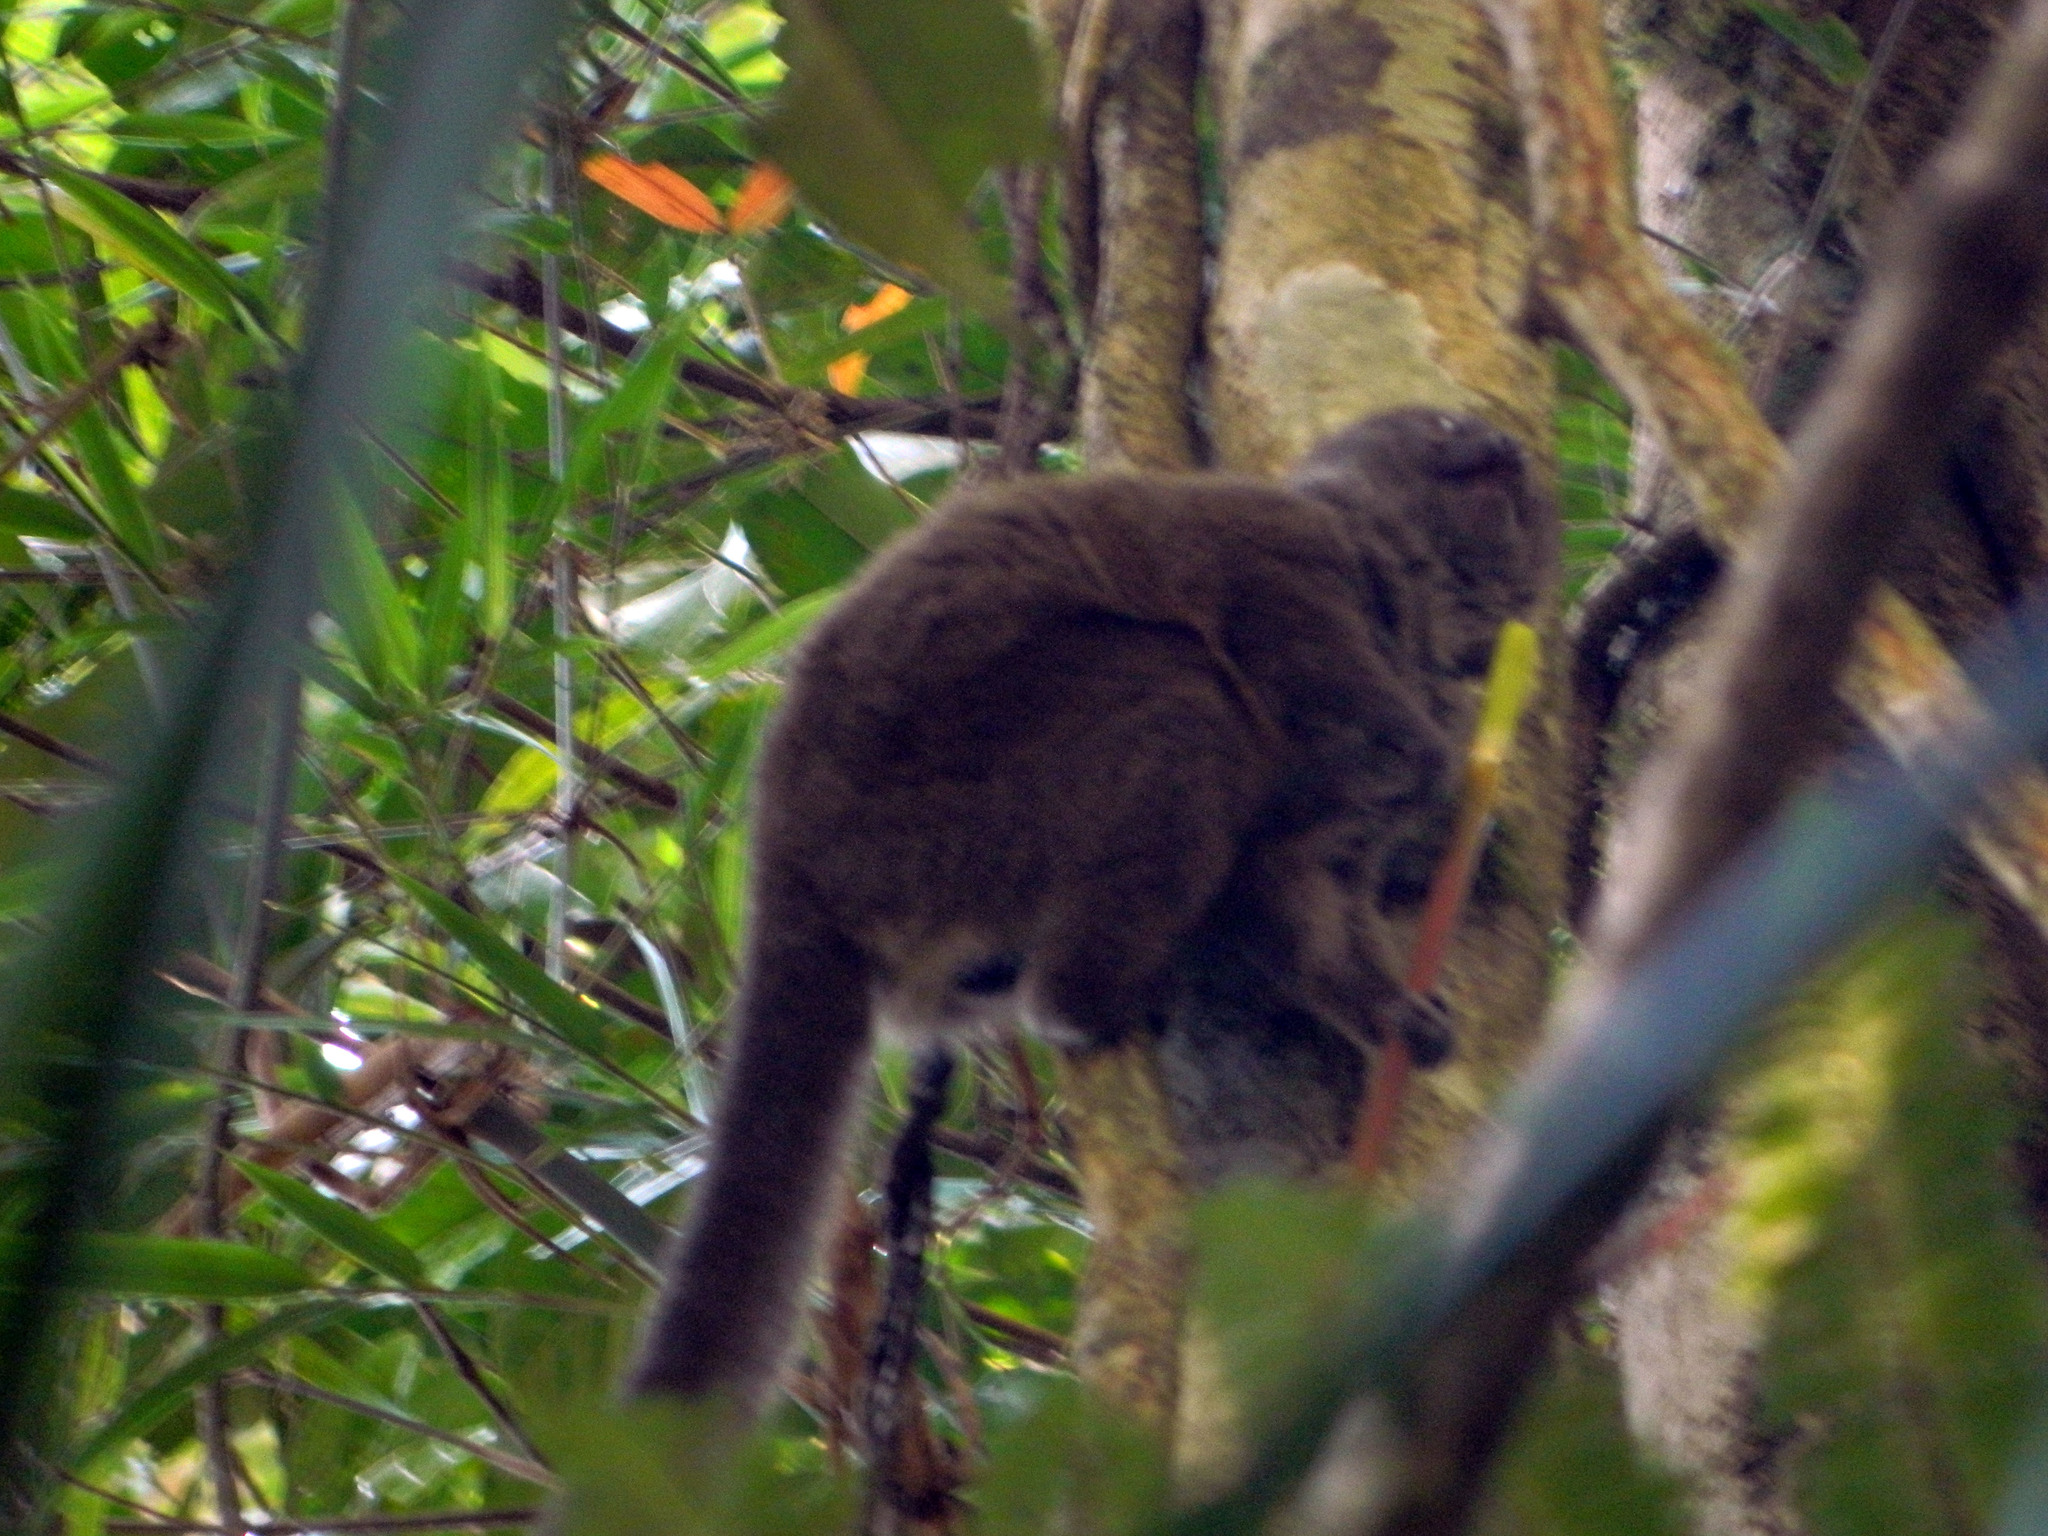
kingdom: Animalia
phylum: Chordata
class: Mammalia
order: Primates
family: Lemuridae
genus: Hapalemur
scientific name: Hapalemur griseus
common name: Gray bamboo lemur
